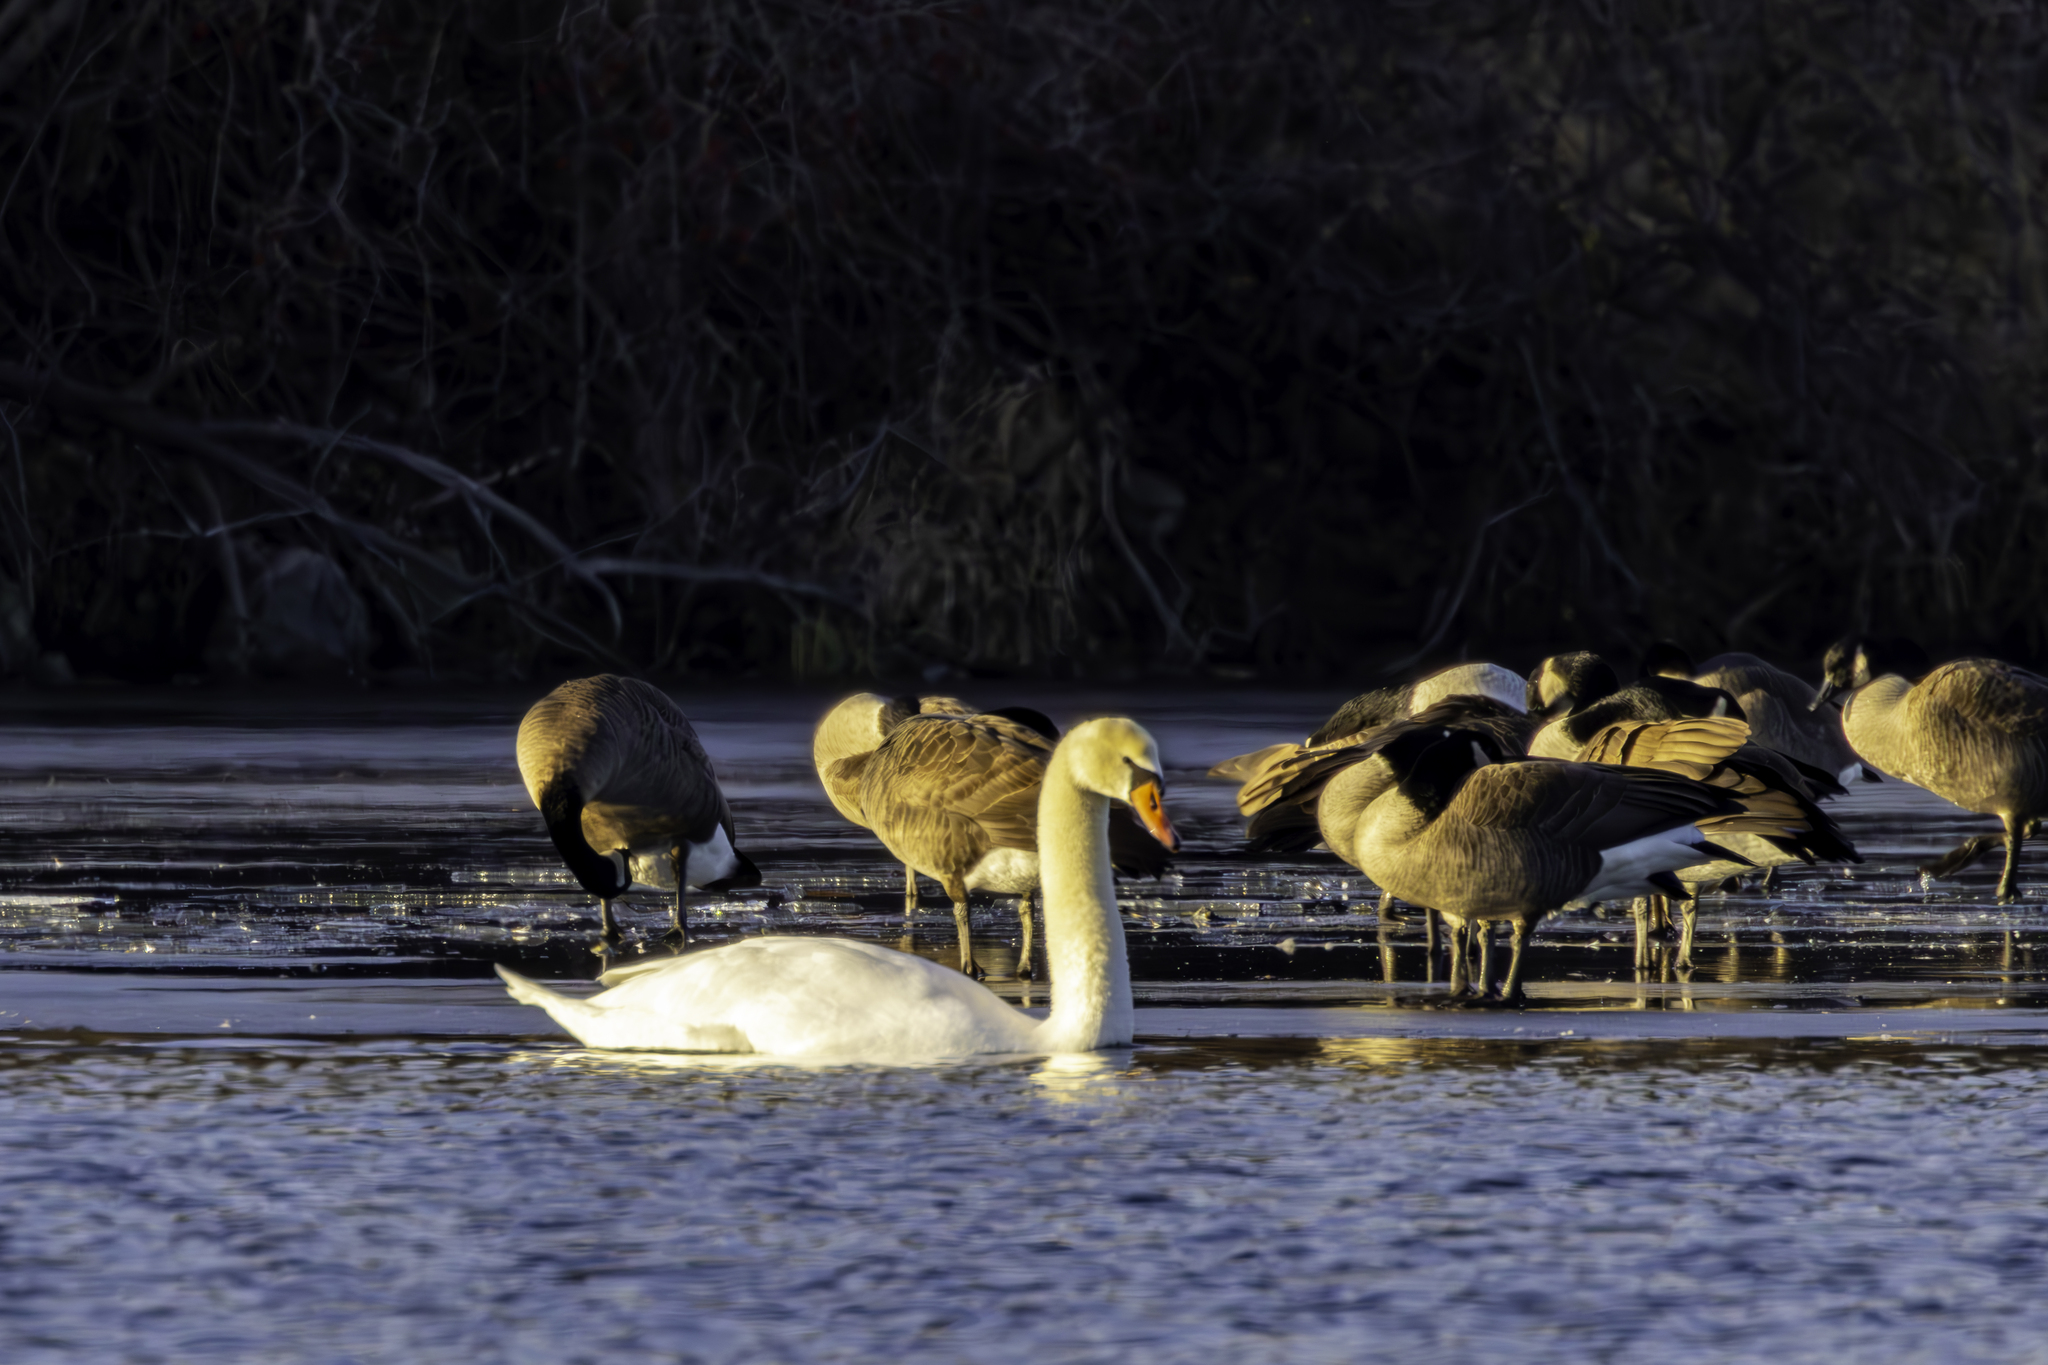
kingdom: Animalia
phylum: Chordata
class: Aves
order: Anseriformes
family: Anatidae
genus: Cygnus
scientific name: Cygnus olor
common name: Mute swan
